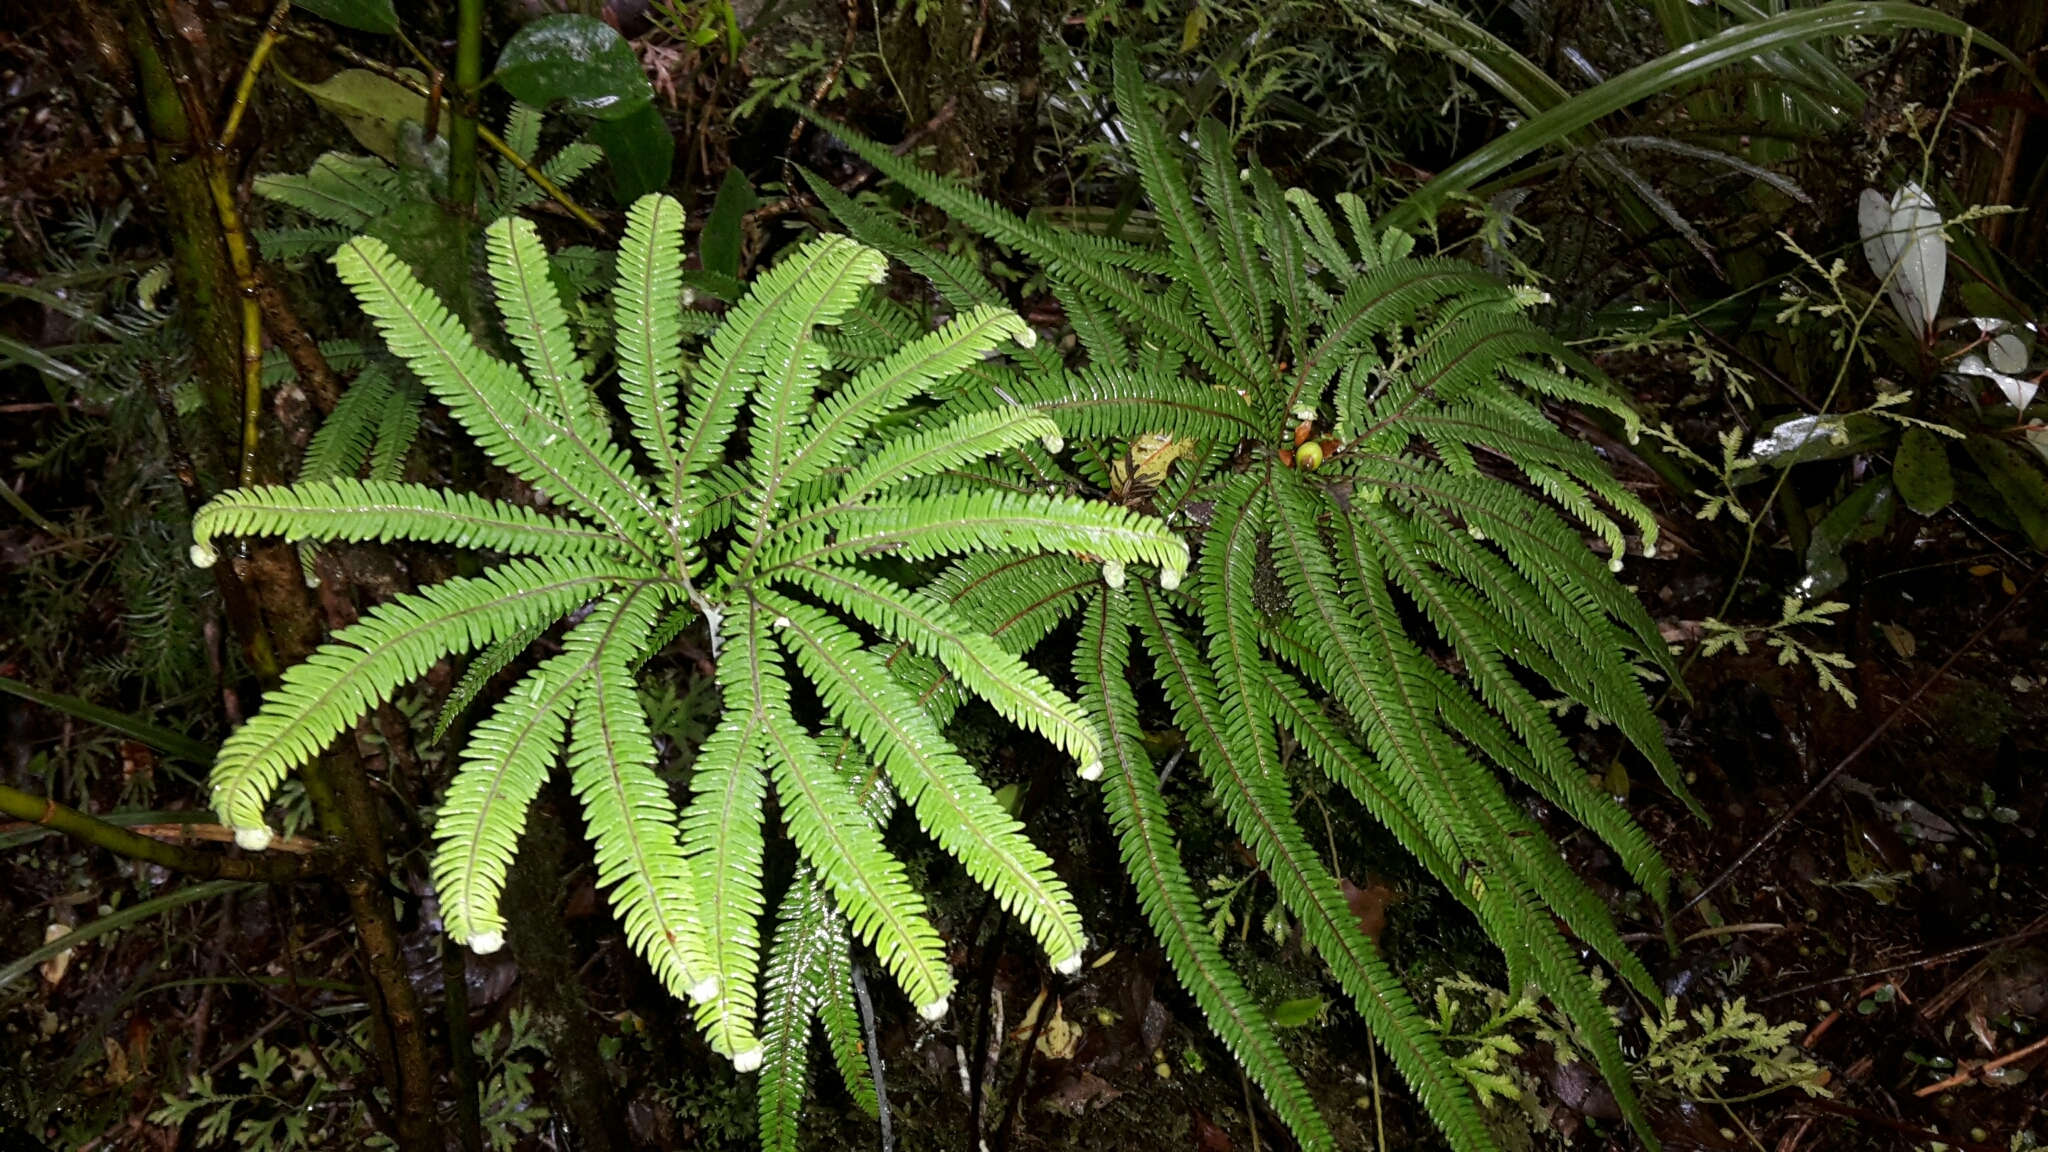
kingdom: Plantae
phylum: Tracheophyta
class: Polypodiopsida
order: Gleicheniales
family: Gleicheniaceae
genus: Sticherus
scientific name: Sticherus cunninghamii
